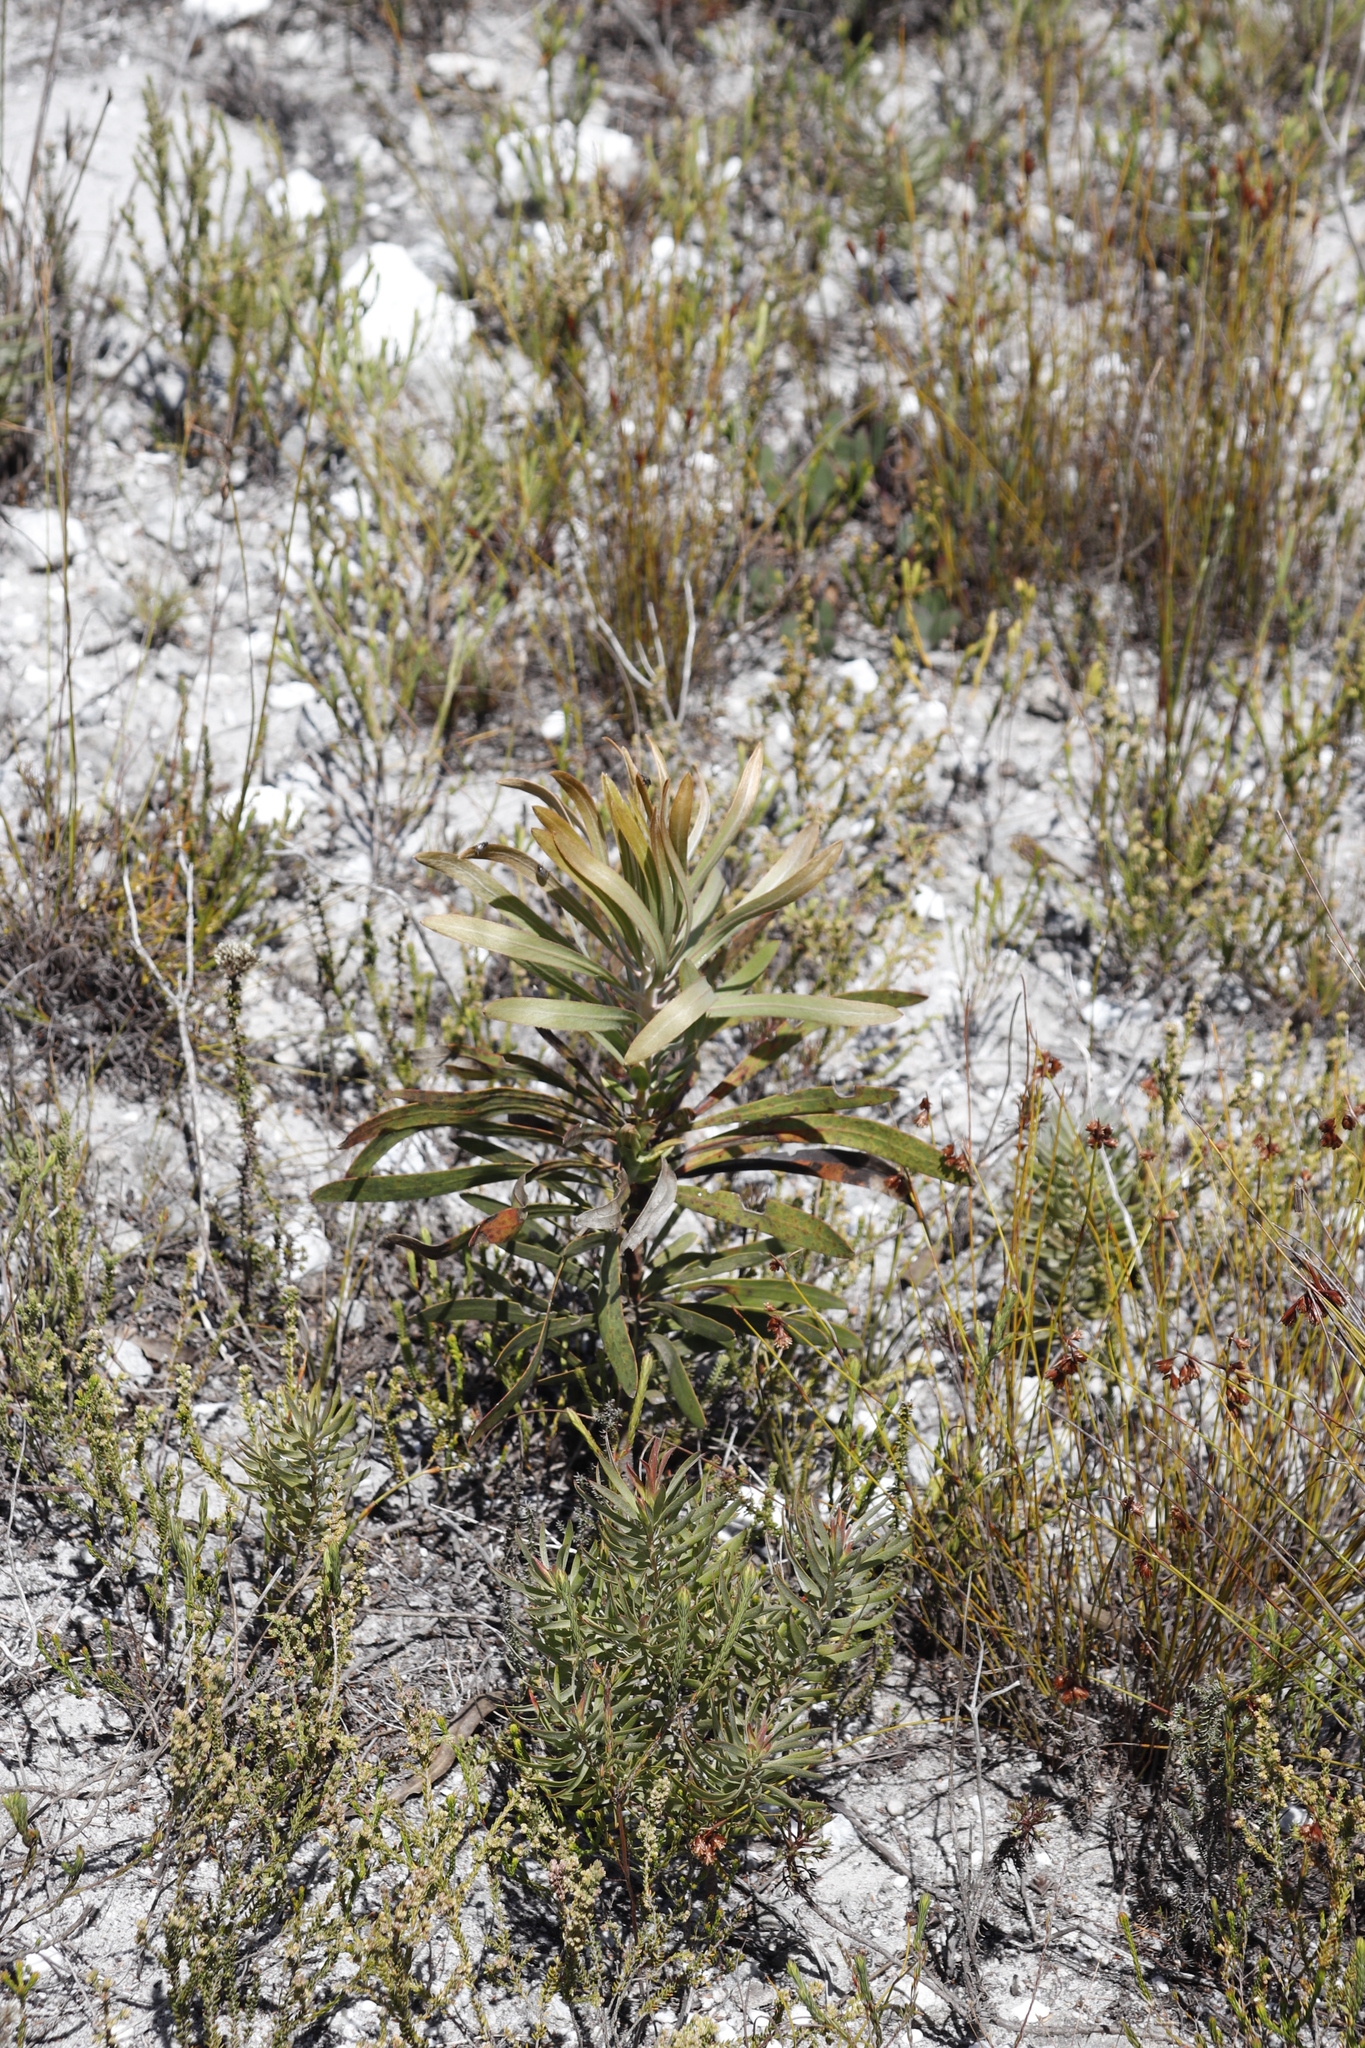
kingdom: Plantae
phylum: Tracheophyta
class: Magnoliopsida
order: Proteales
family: Proteaceae
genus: Protea
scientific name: Protea longifolia
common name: Long-leaf sugarbush
